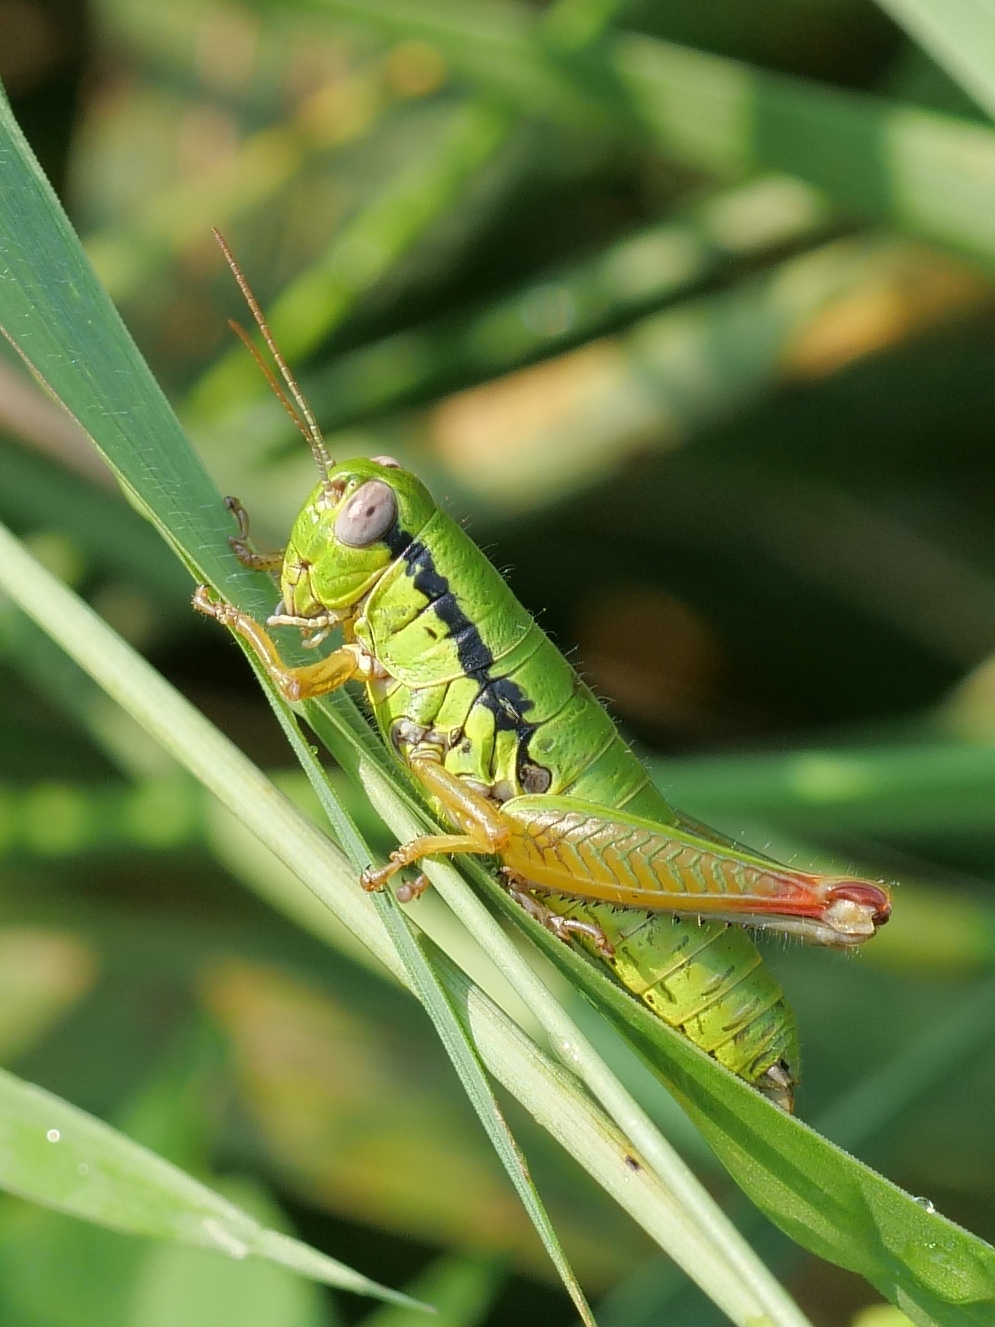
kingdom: Animalia
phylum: Arthropoda
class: Insecta
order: Orthoptera
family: Acrididae
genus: Micropodisma
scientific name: Micropodisma salamandra
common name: Foothill mountain grasshopper
